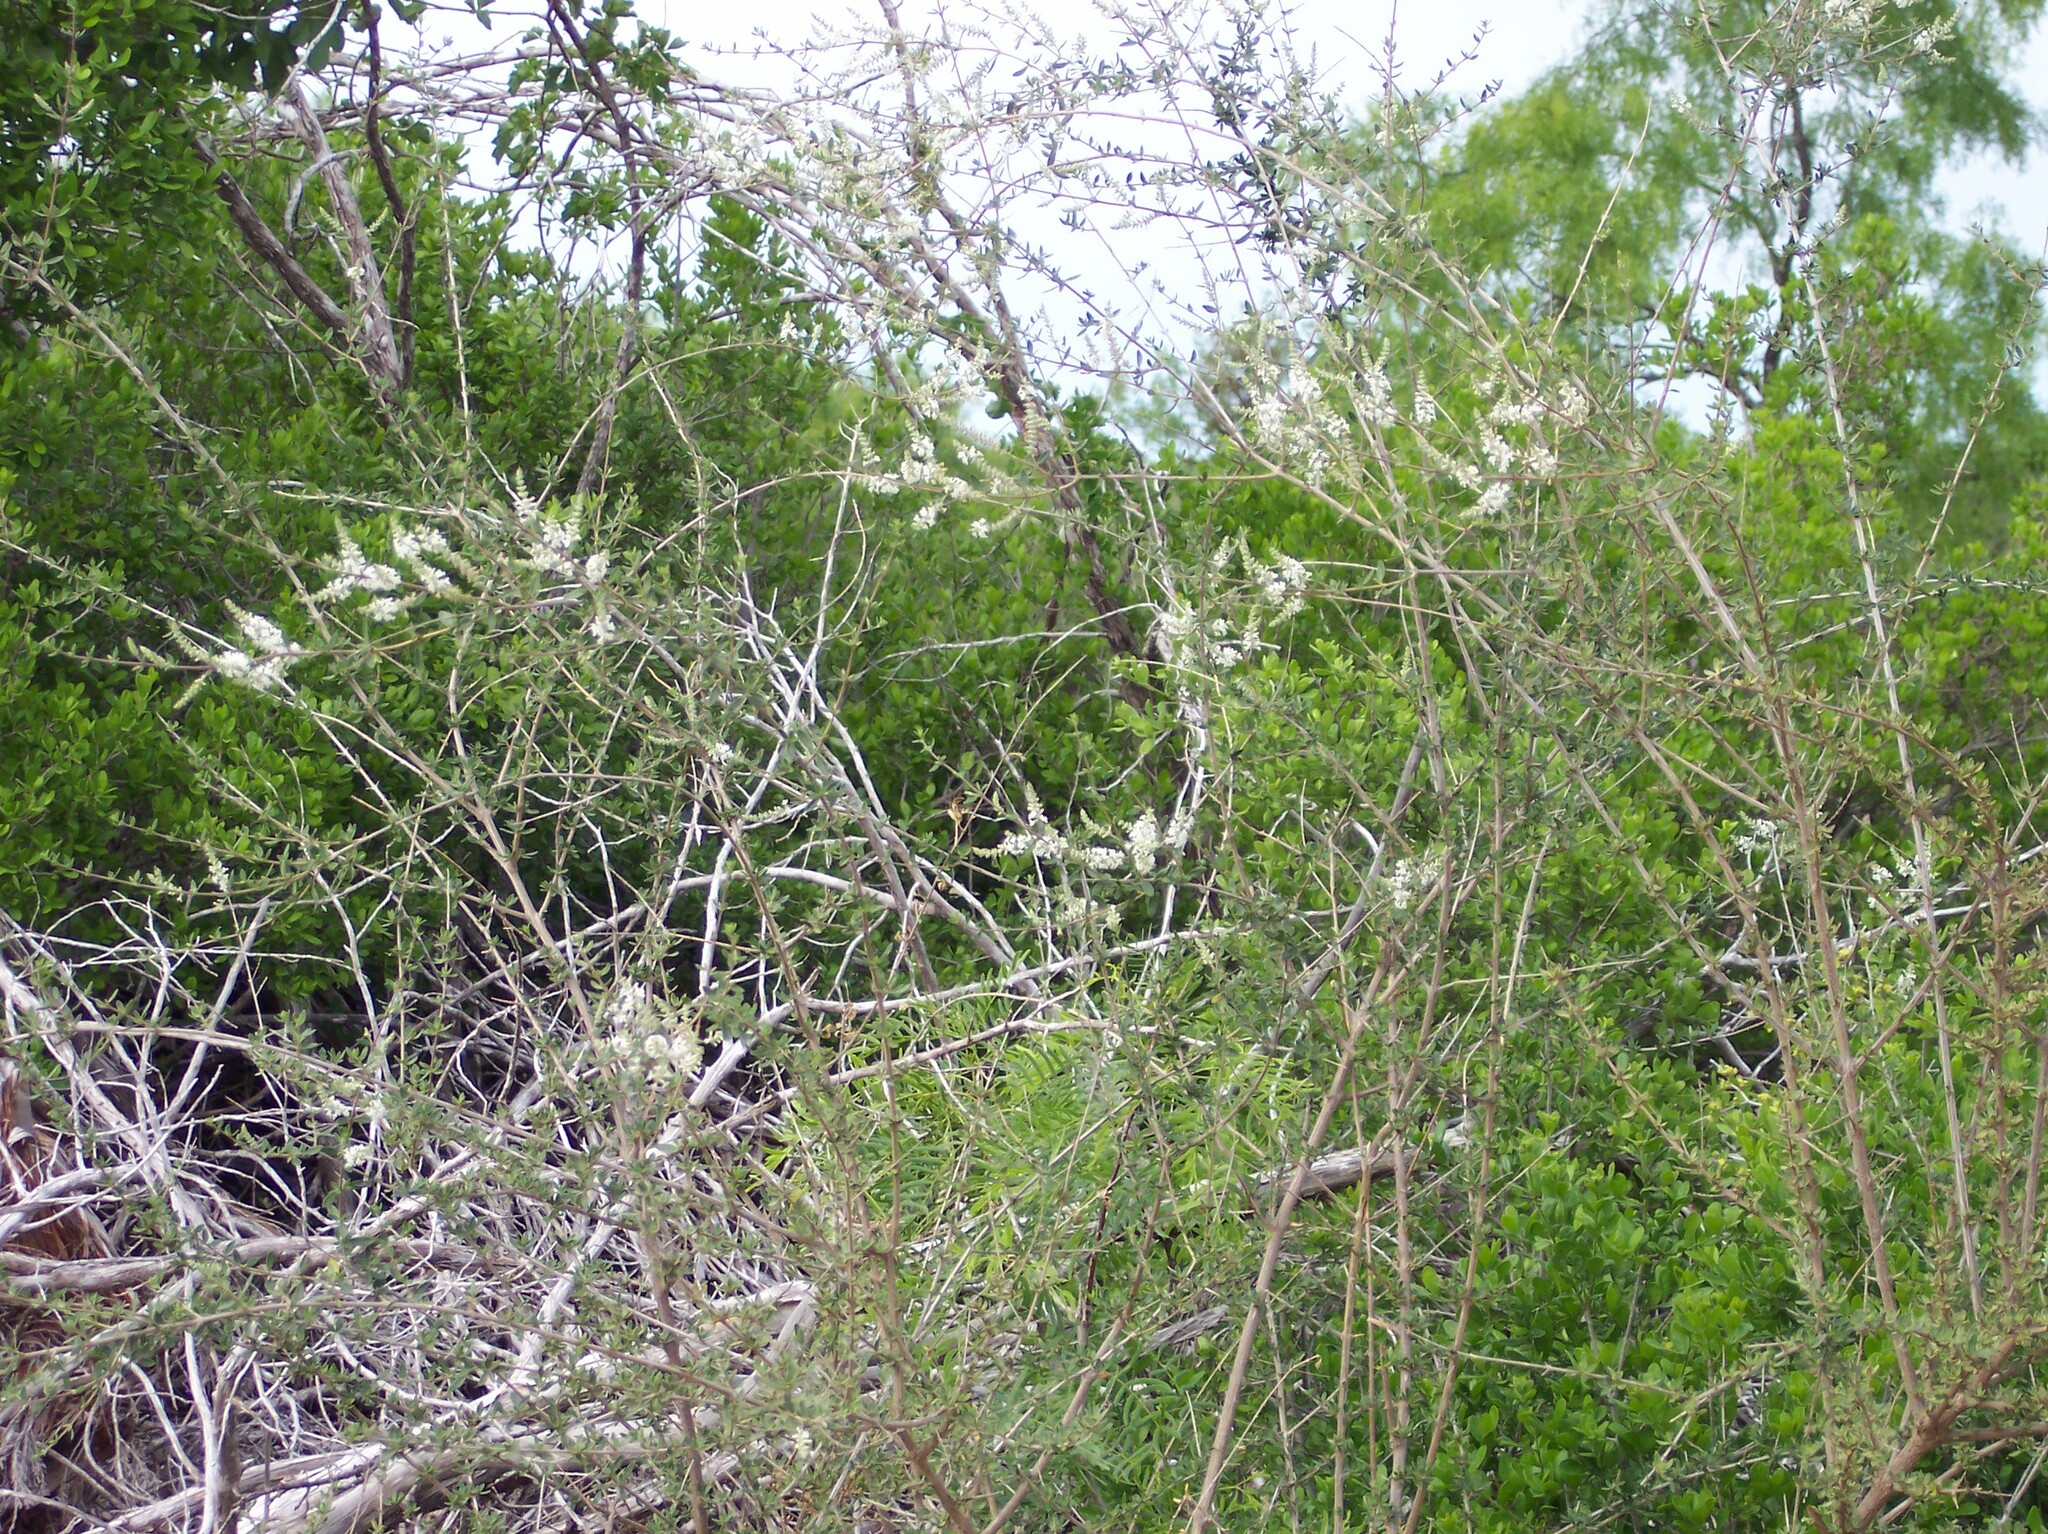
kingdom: Plantae
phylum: Tracheophyta
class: Magnoliopsida
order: Lamiales
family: Verbenaceae
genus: Aloysia
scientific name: Aloysia gratissima
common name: Common bee-brush
